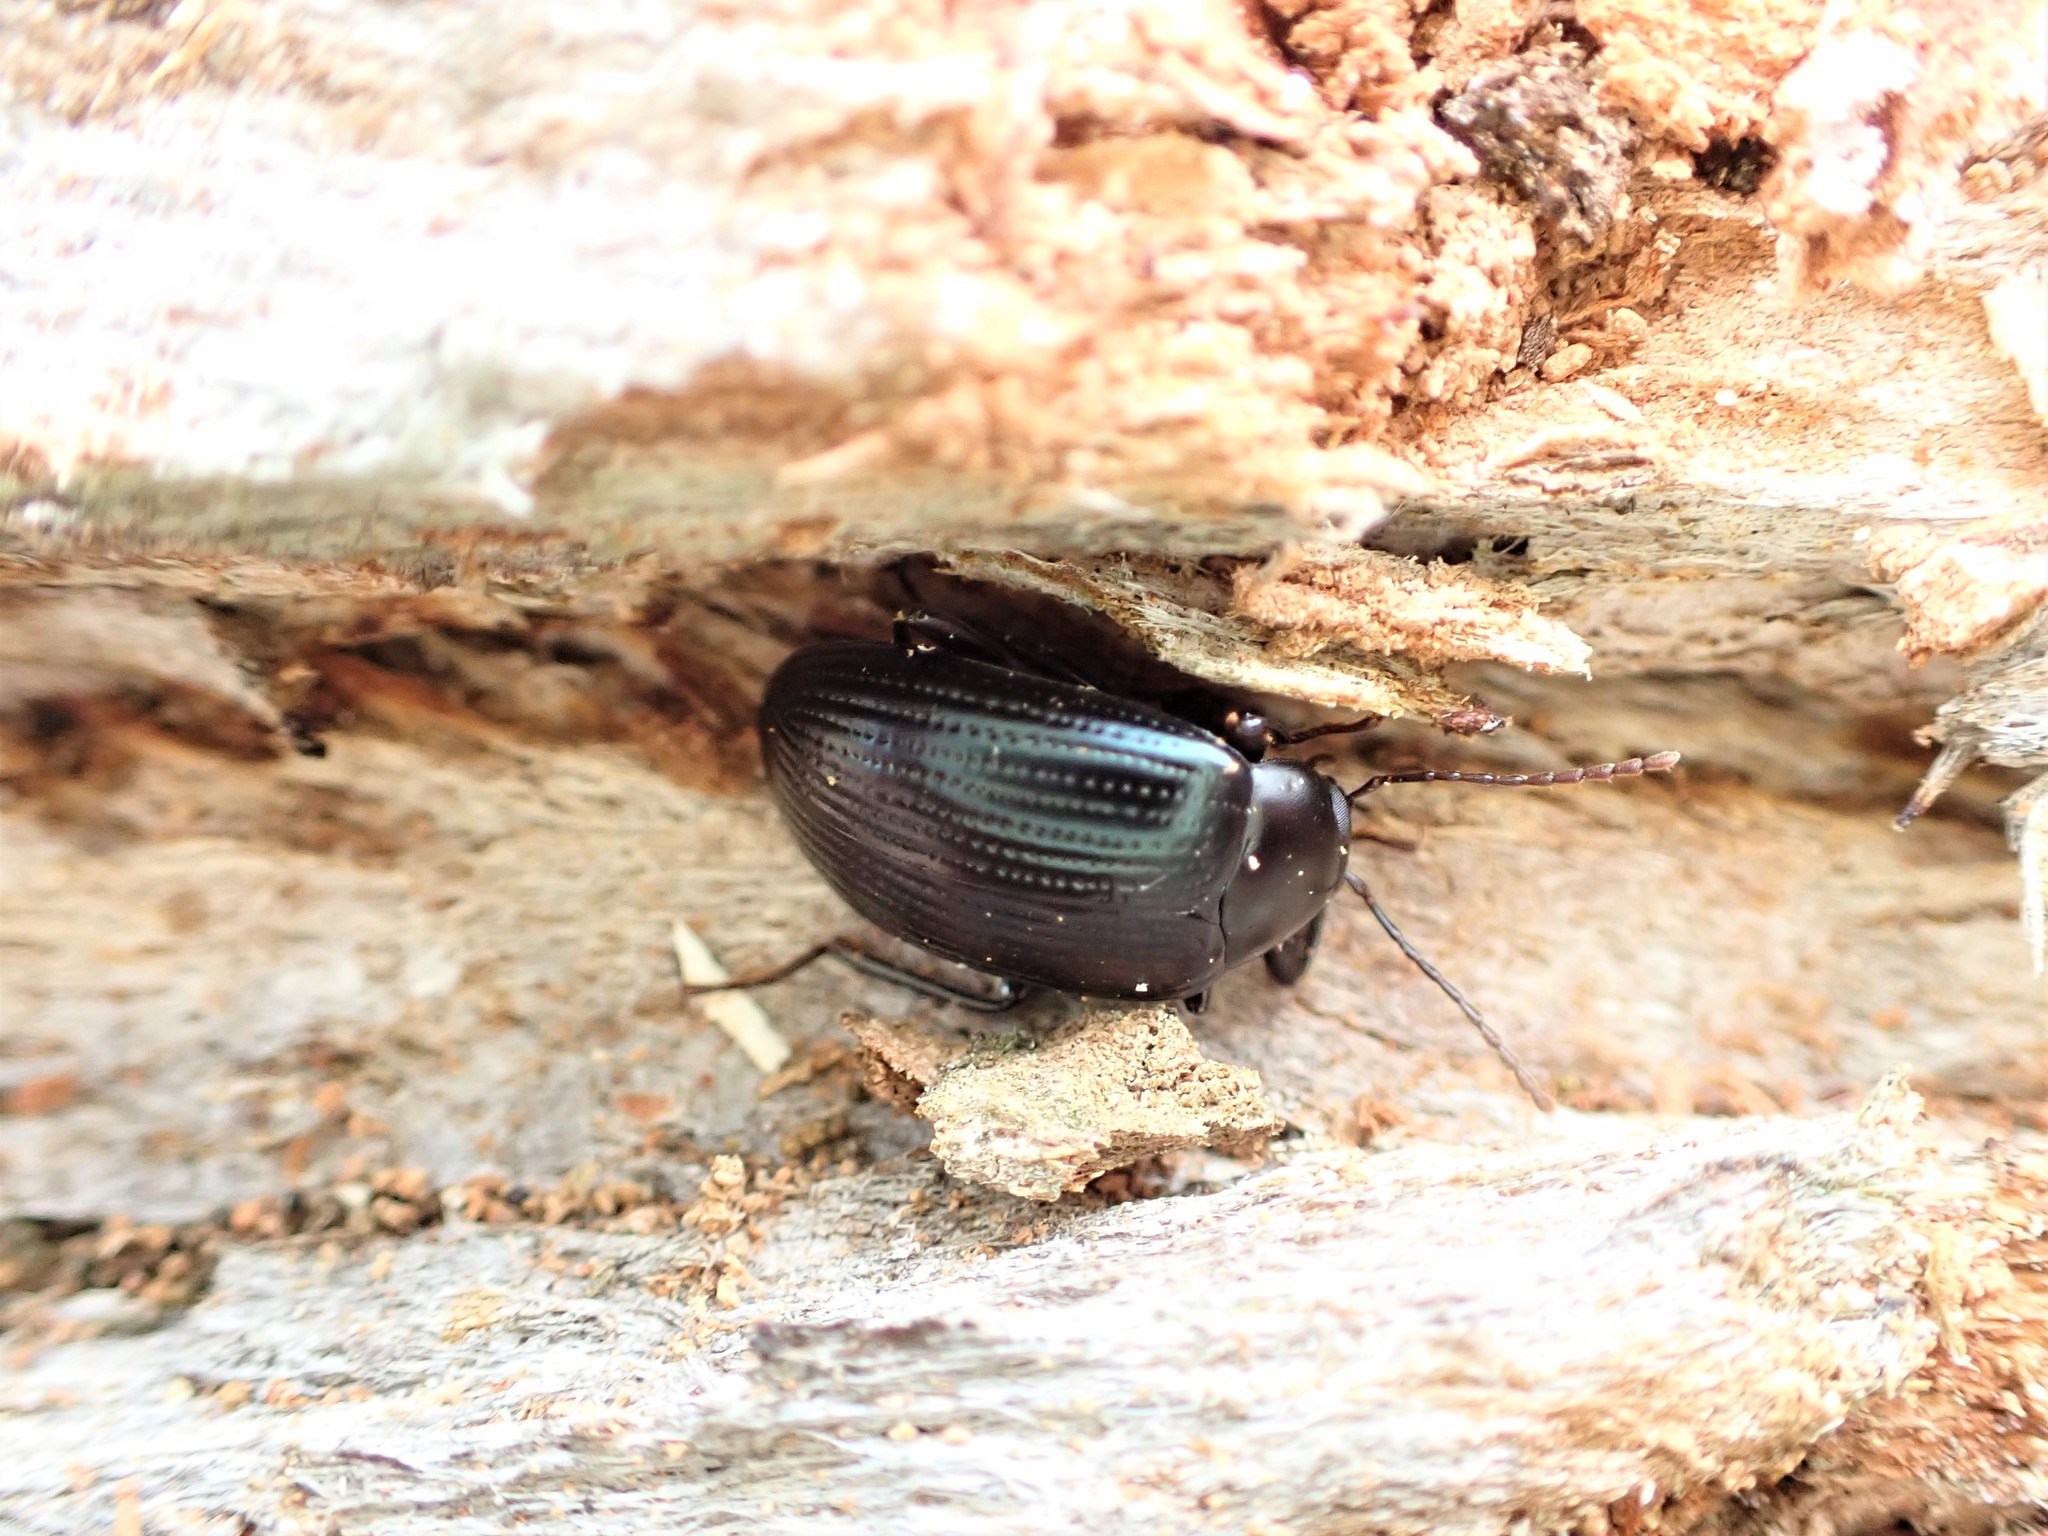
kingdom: Animalia
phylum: Arthropoda
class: Insecta
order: Coleoptera
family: Tenebrionidae
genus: Amarygmus
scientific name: Amarygmus
